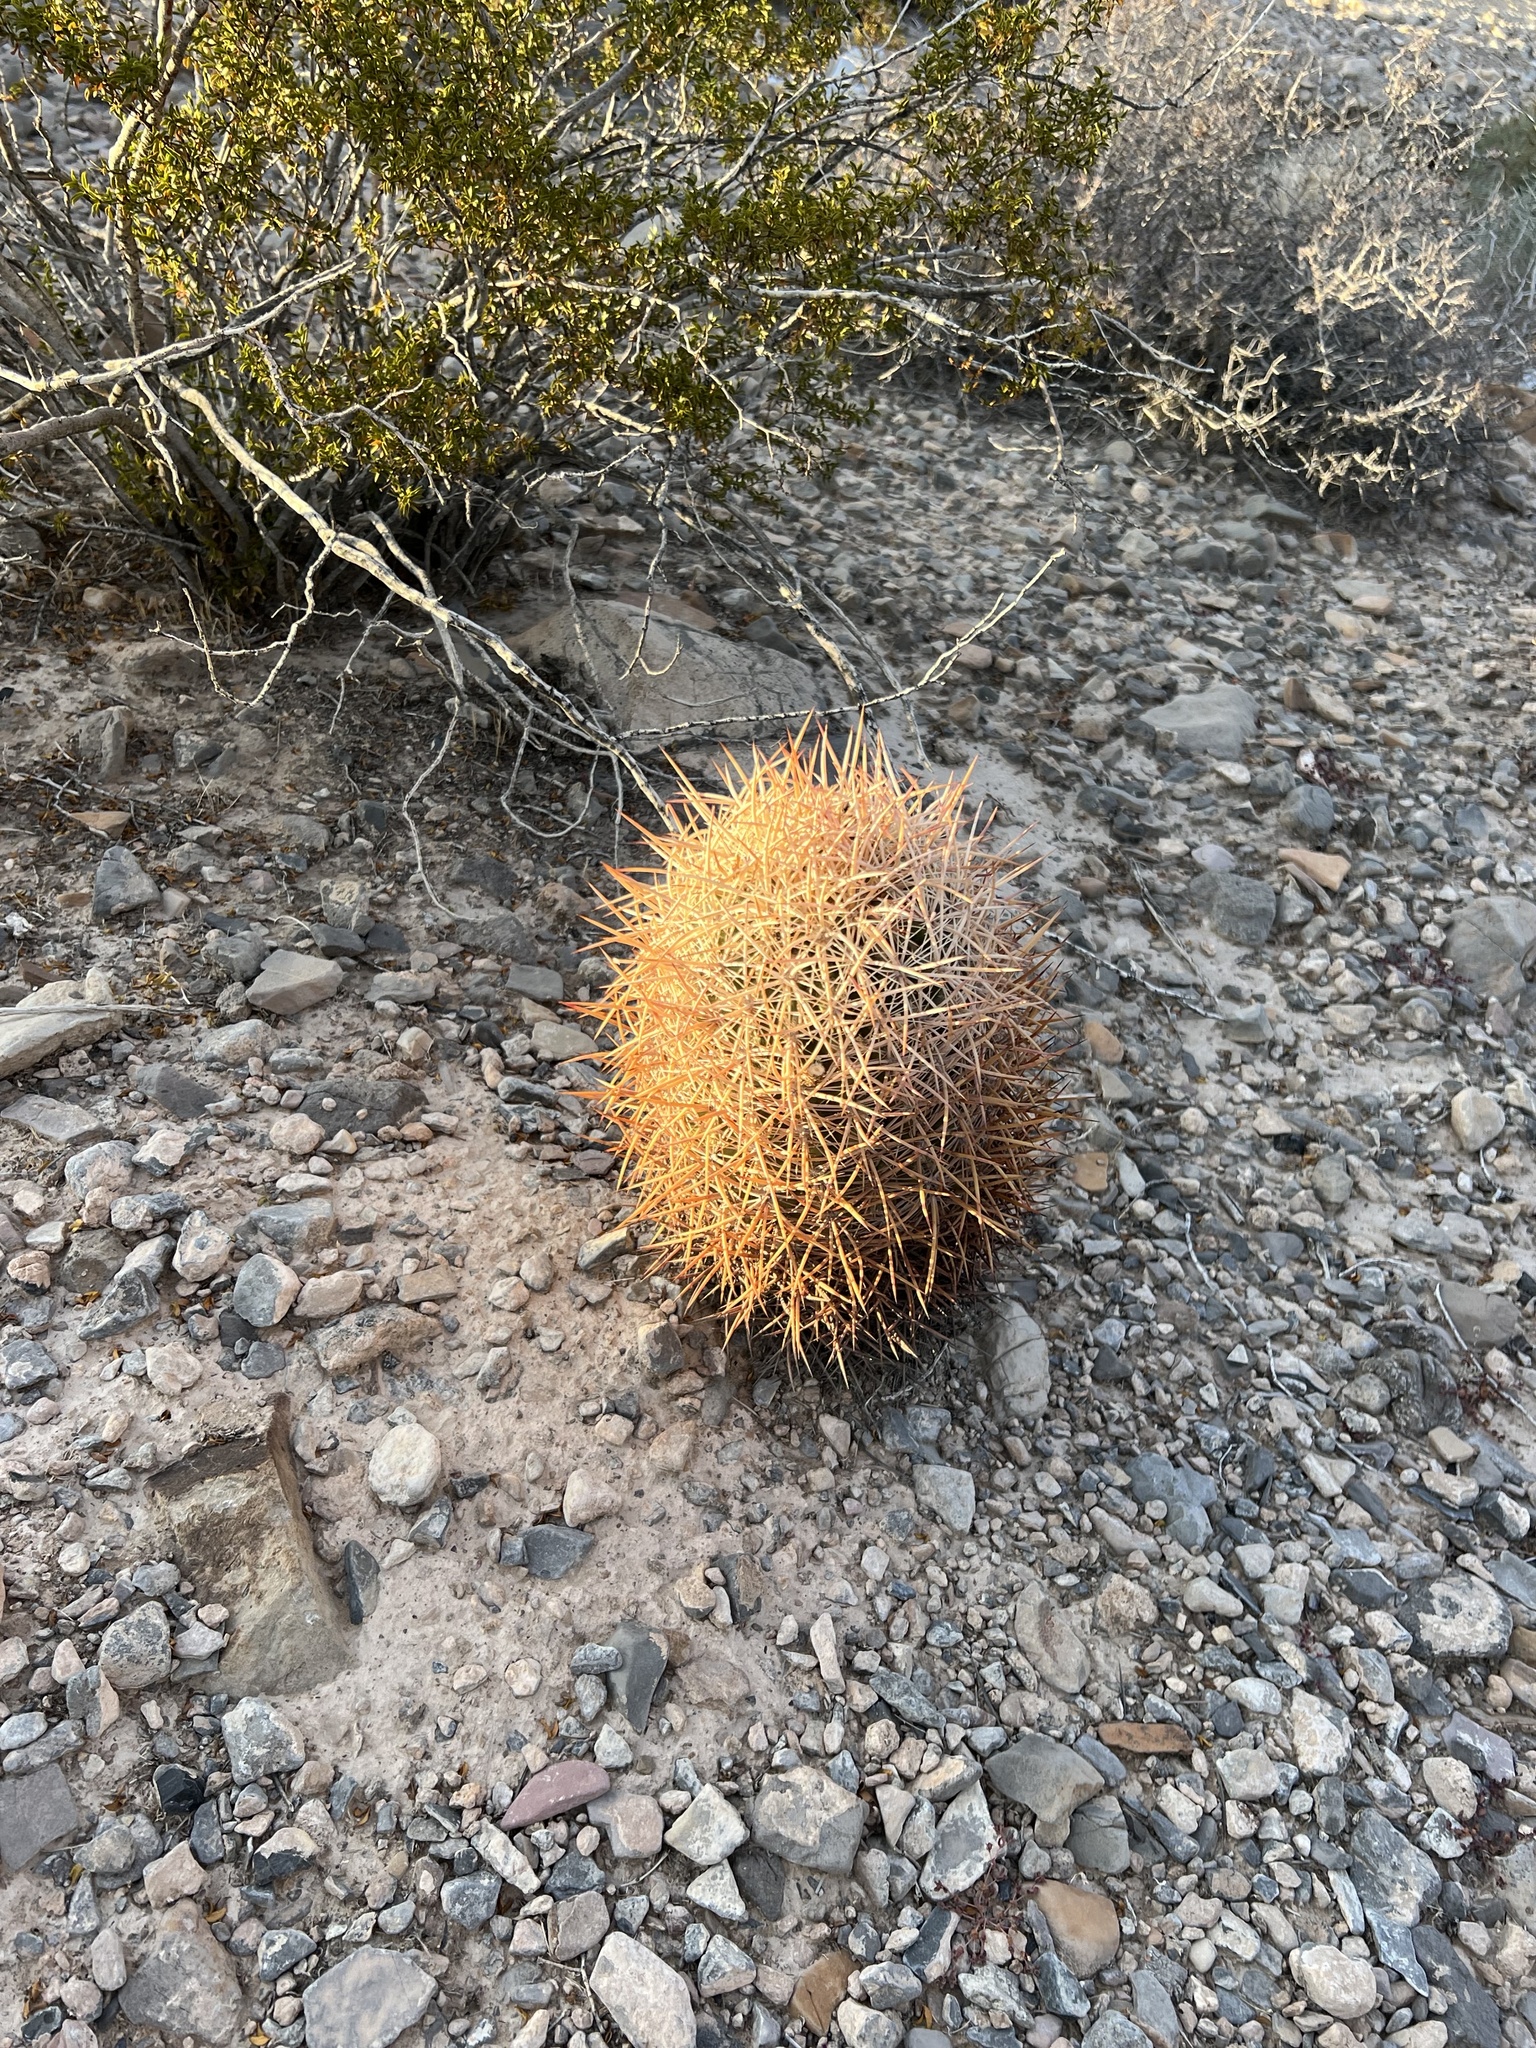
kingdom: Plantae
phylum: Tracheophyta
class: Magnoliopsida
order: Caryophyllales
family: Cactaceae
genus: Sclerocactus
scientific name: Sclerocactus johnsonii
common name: Eight-spine fishhook cactus
